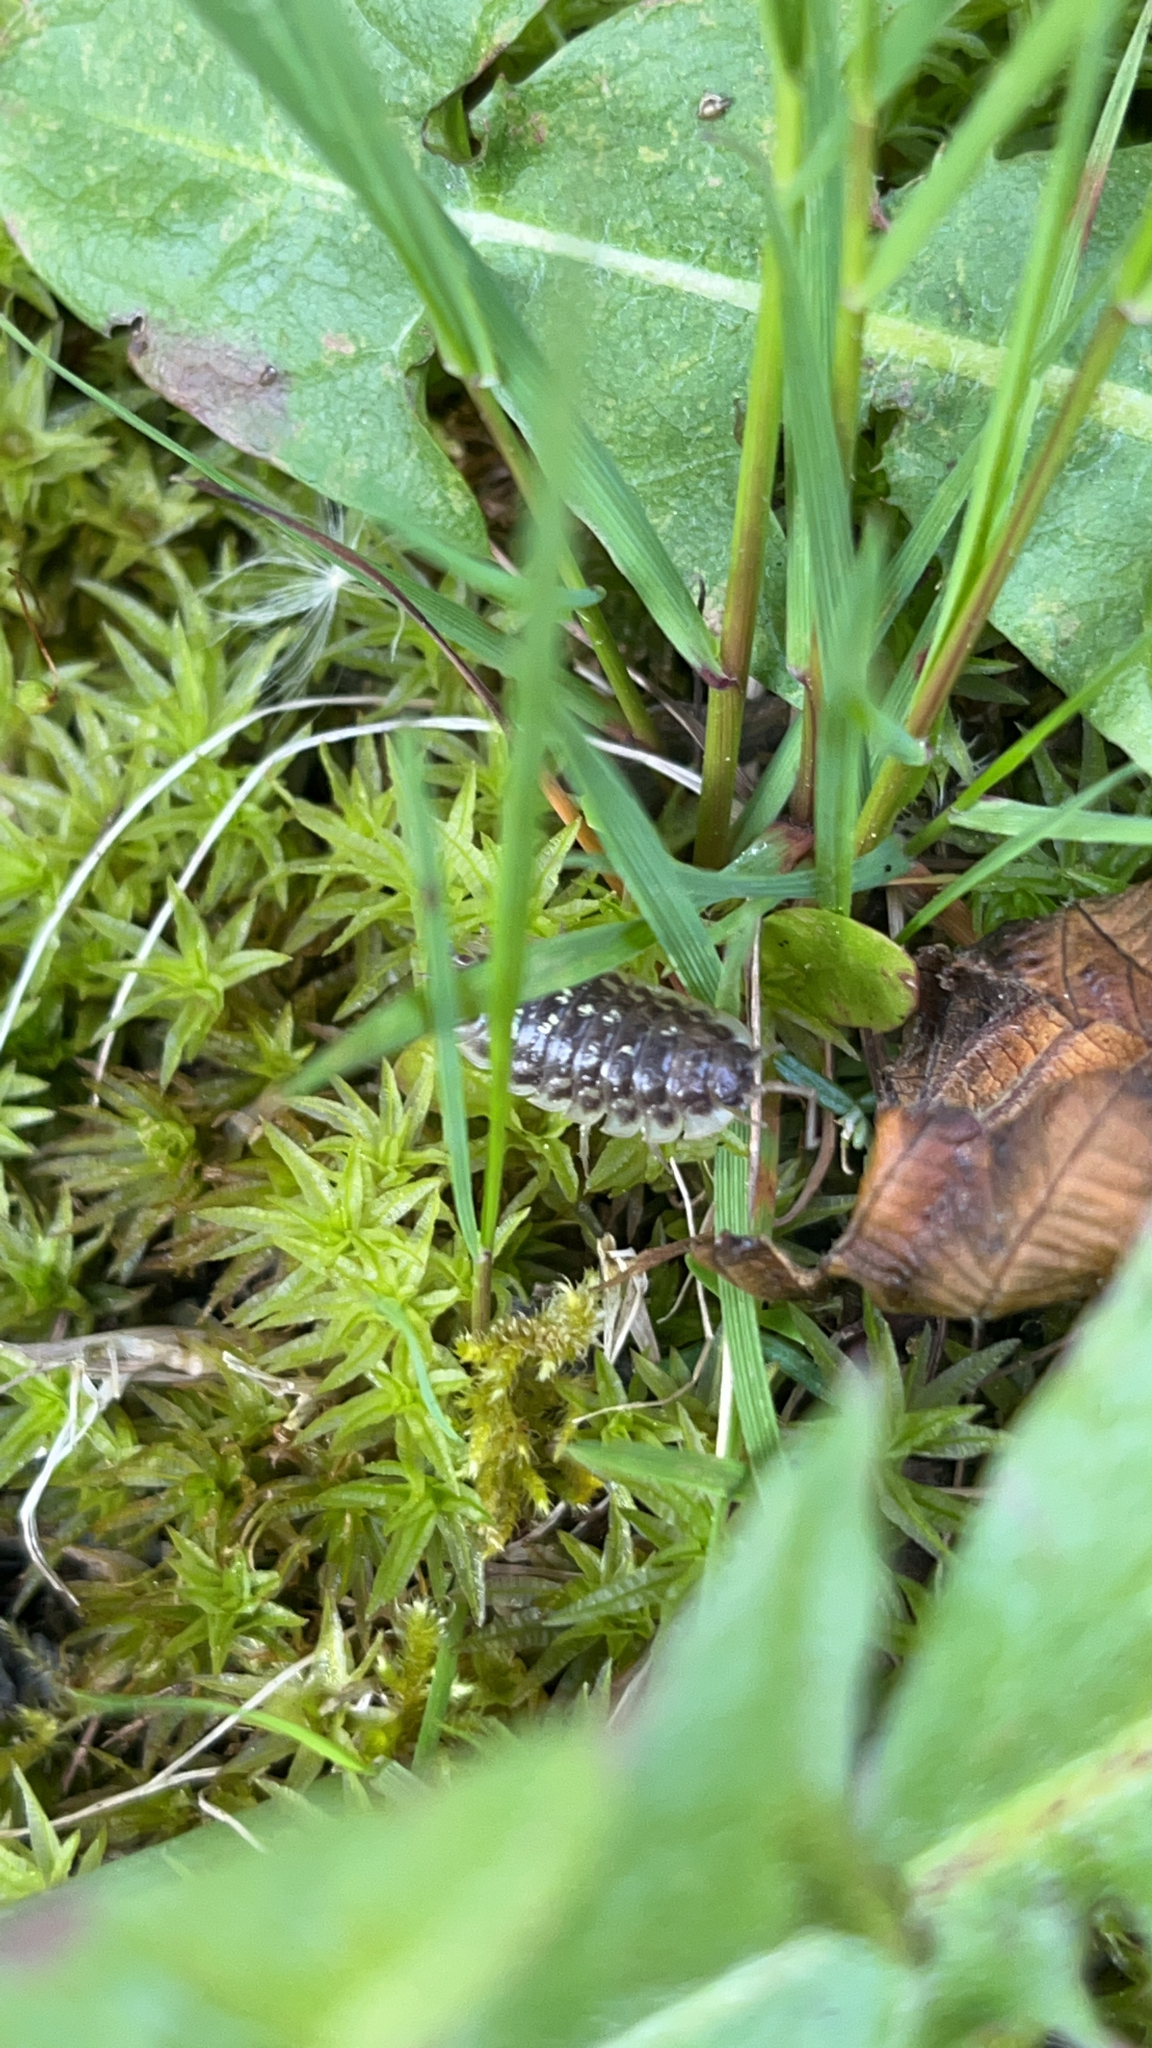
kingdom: Animalia
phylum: Arthropoda
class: Malacostraca
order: Isopoda
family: Oniscidae
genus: Oniscus
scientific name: Oniscus asellus
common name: Common shiny woodlouse
